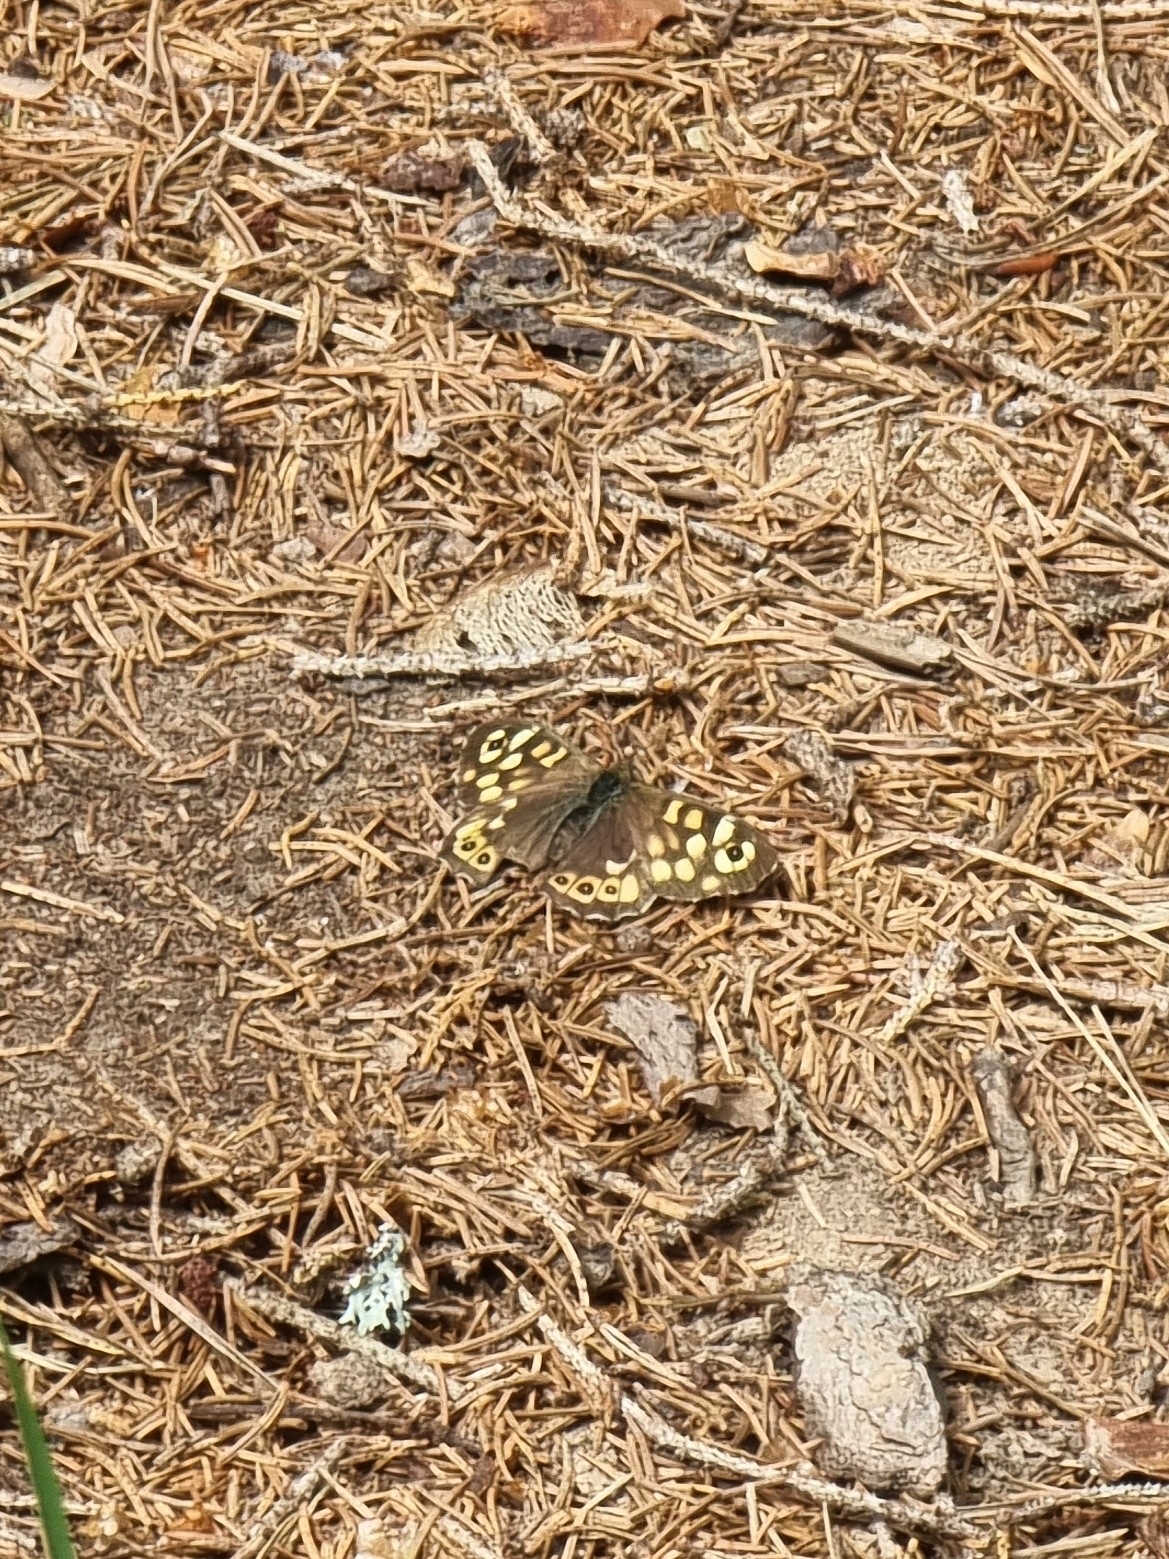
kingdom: Animalia
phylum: Arthropoda
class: Insecta
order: Lepidoptera
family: Nymphalidae
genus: Pararge
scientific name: Pararge aegeria
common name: Speckled wood
